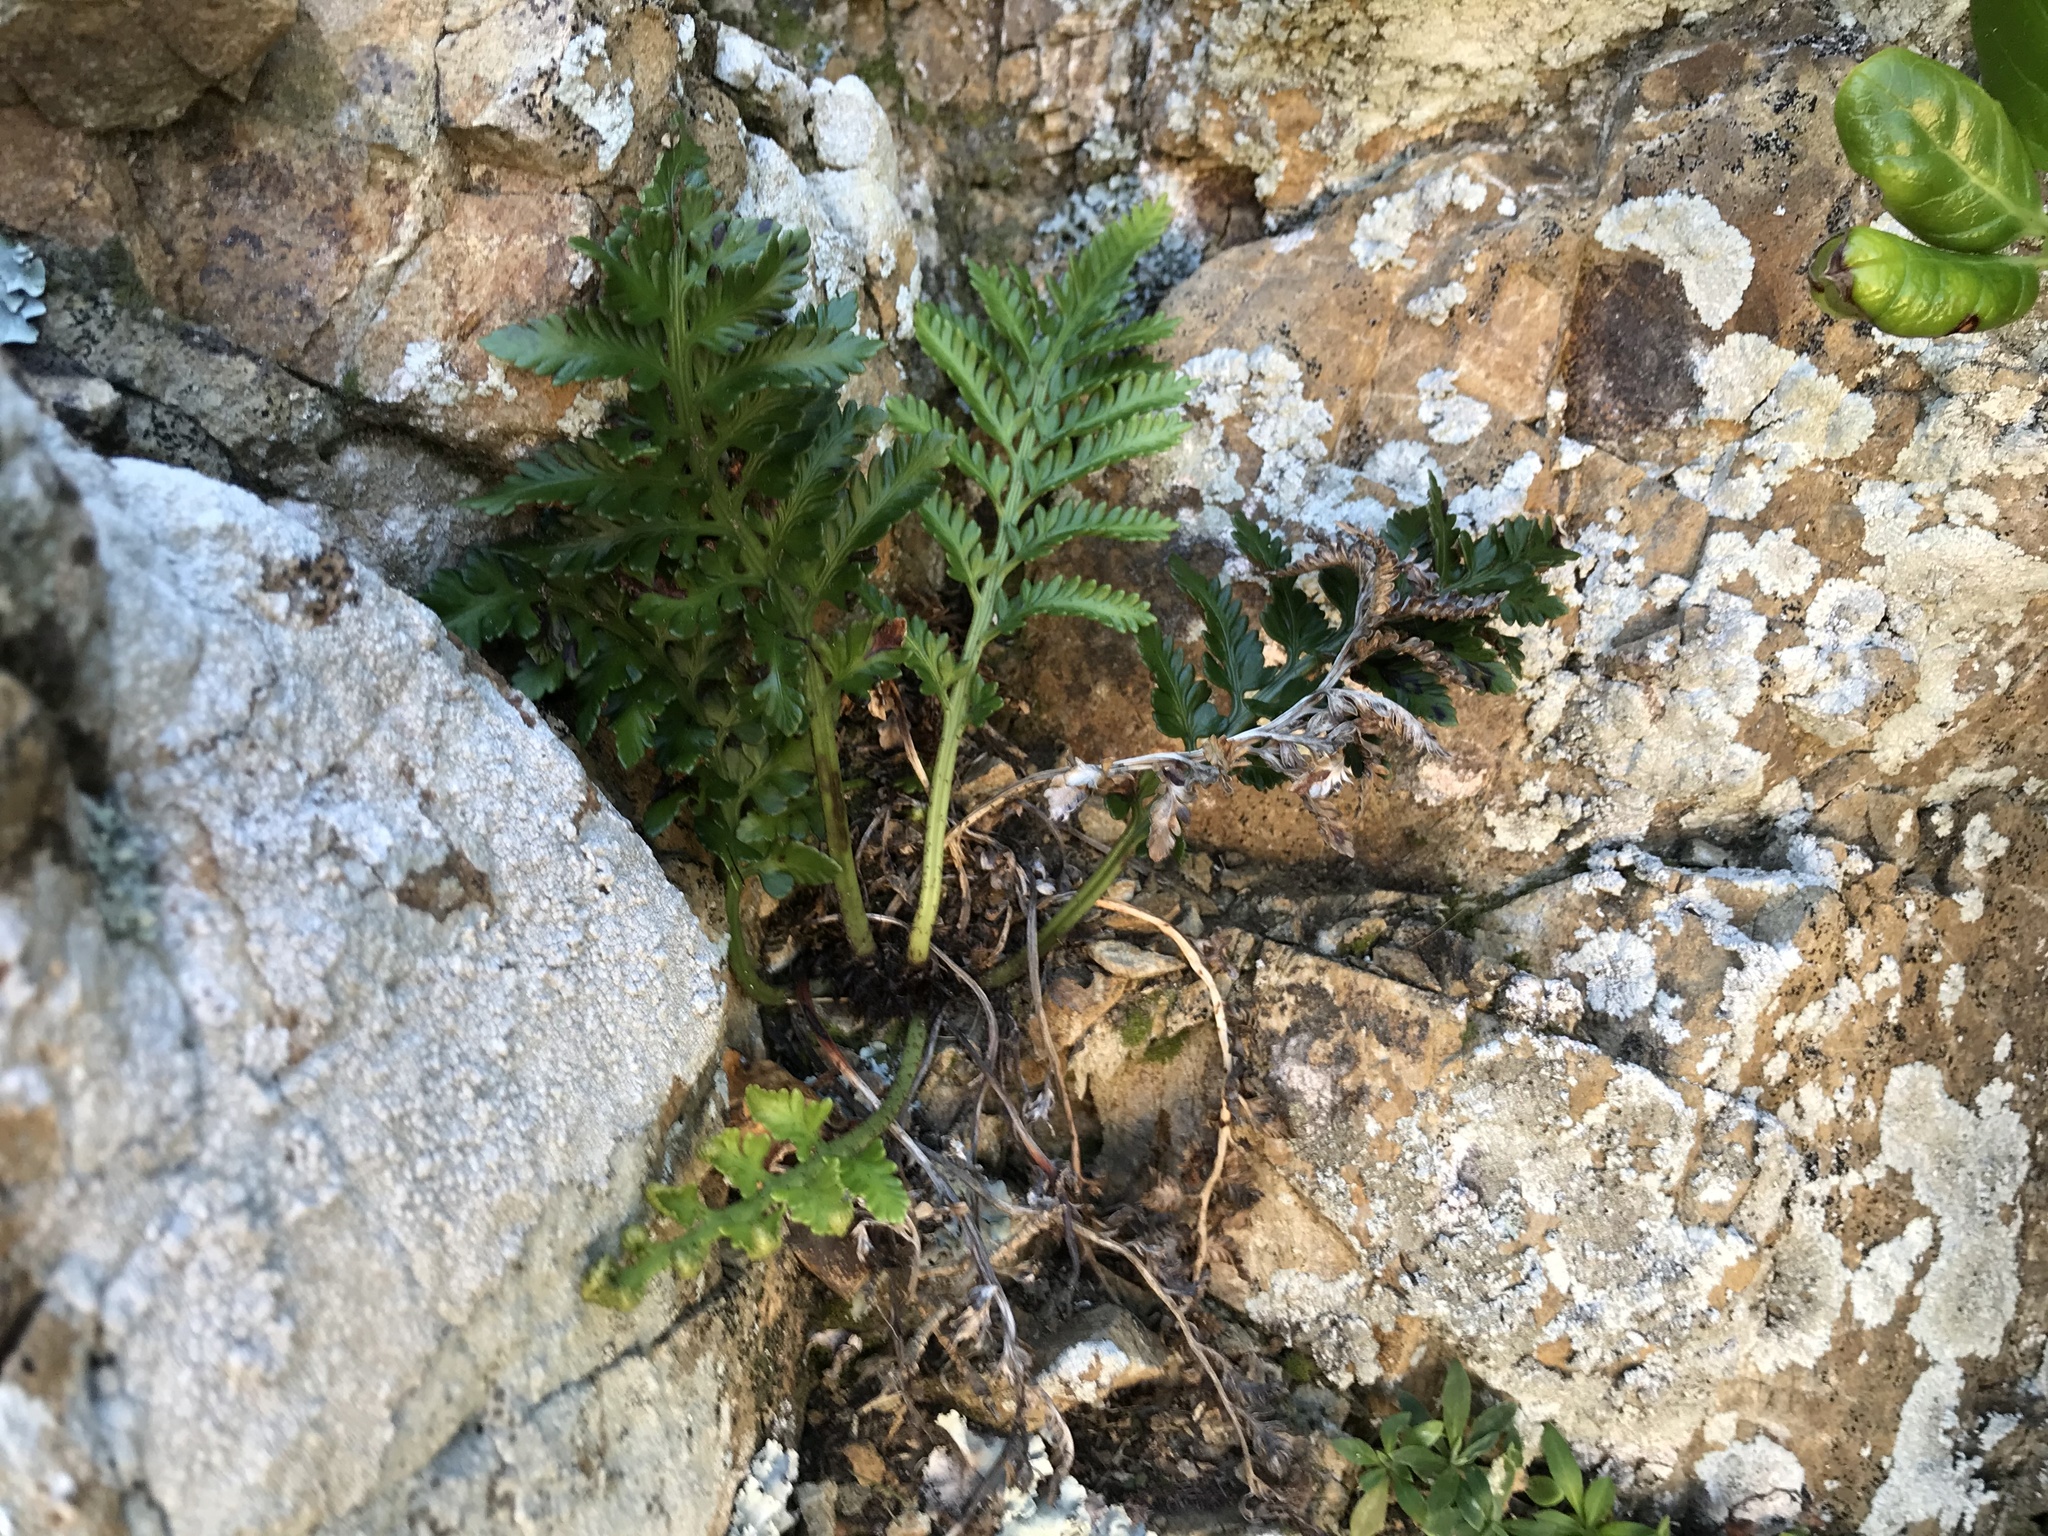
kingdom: Plantae
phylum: Tracheophyta
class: Polypodiopsida
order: Polypodiales
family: Aspleniaceae
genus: Asplenium
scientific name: Asplenium appendiculatum
